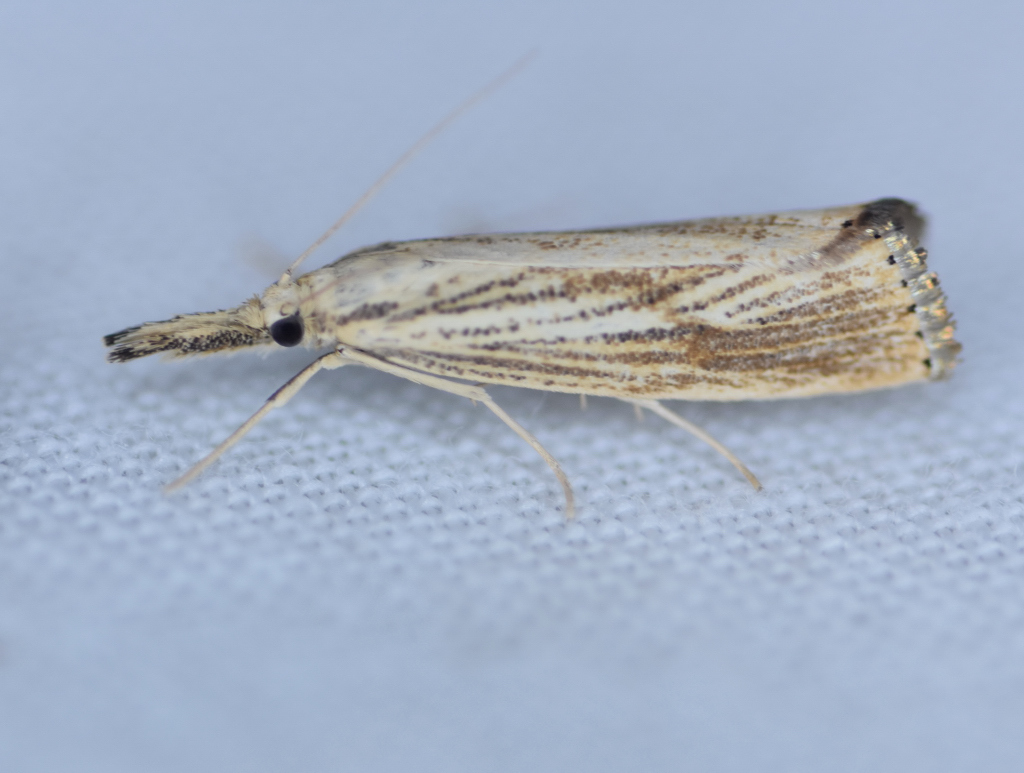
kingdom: Animalia
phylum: Arthropoda
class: Insecta
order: Lepidoptera
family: Crambidae
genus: Agriphila
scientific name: Agriphila ruricolellus
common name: Lesser vagabond sod webworm
